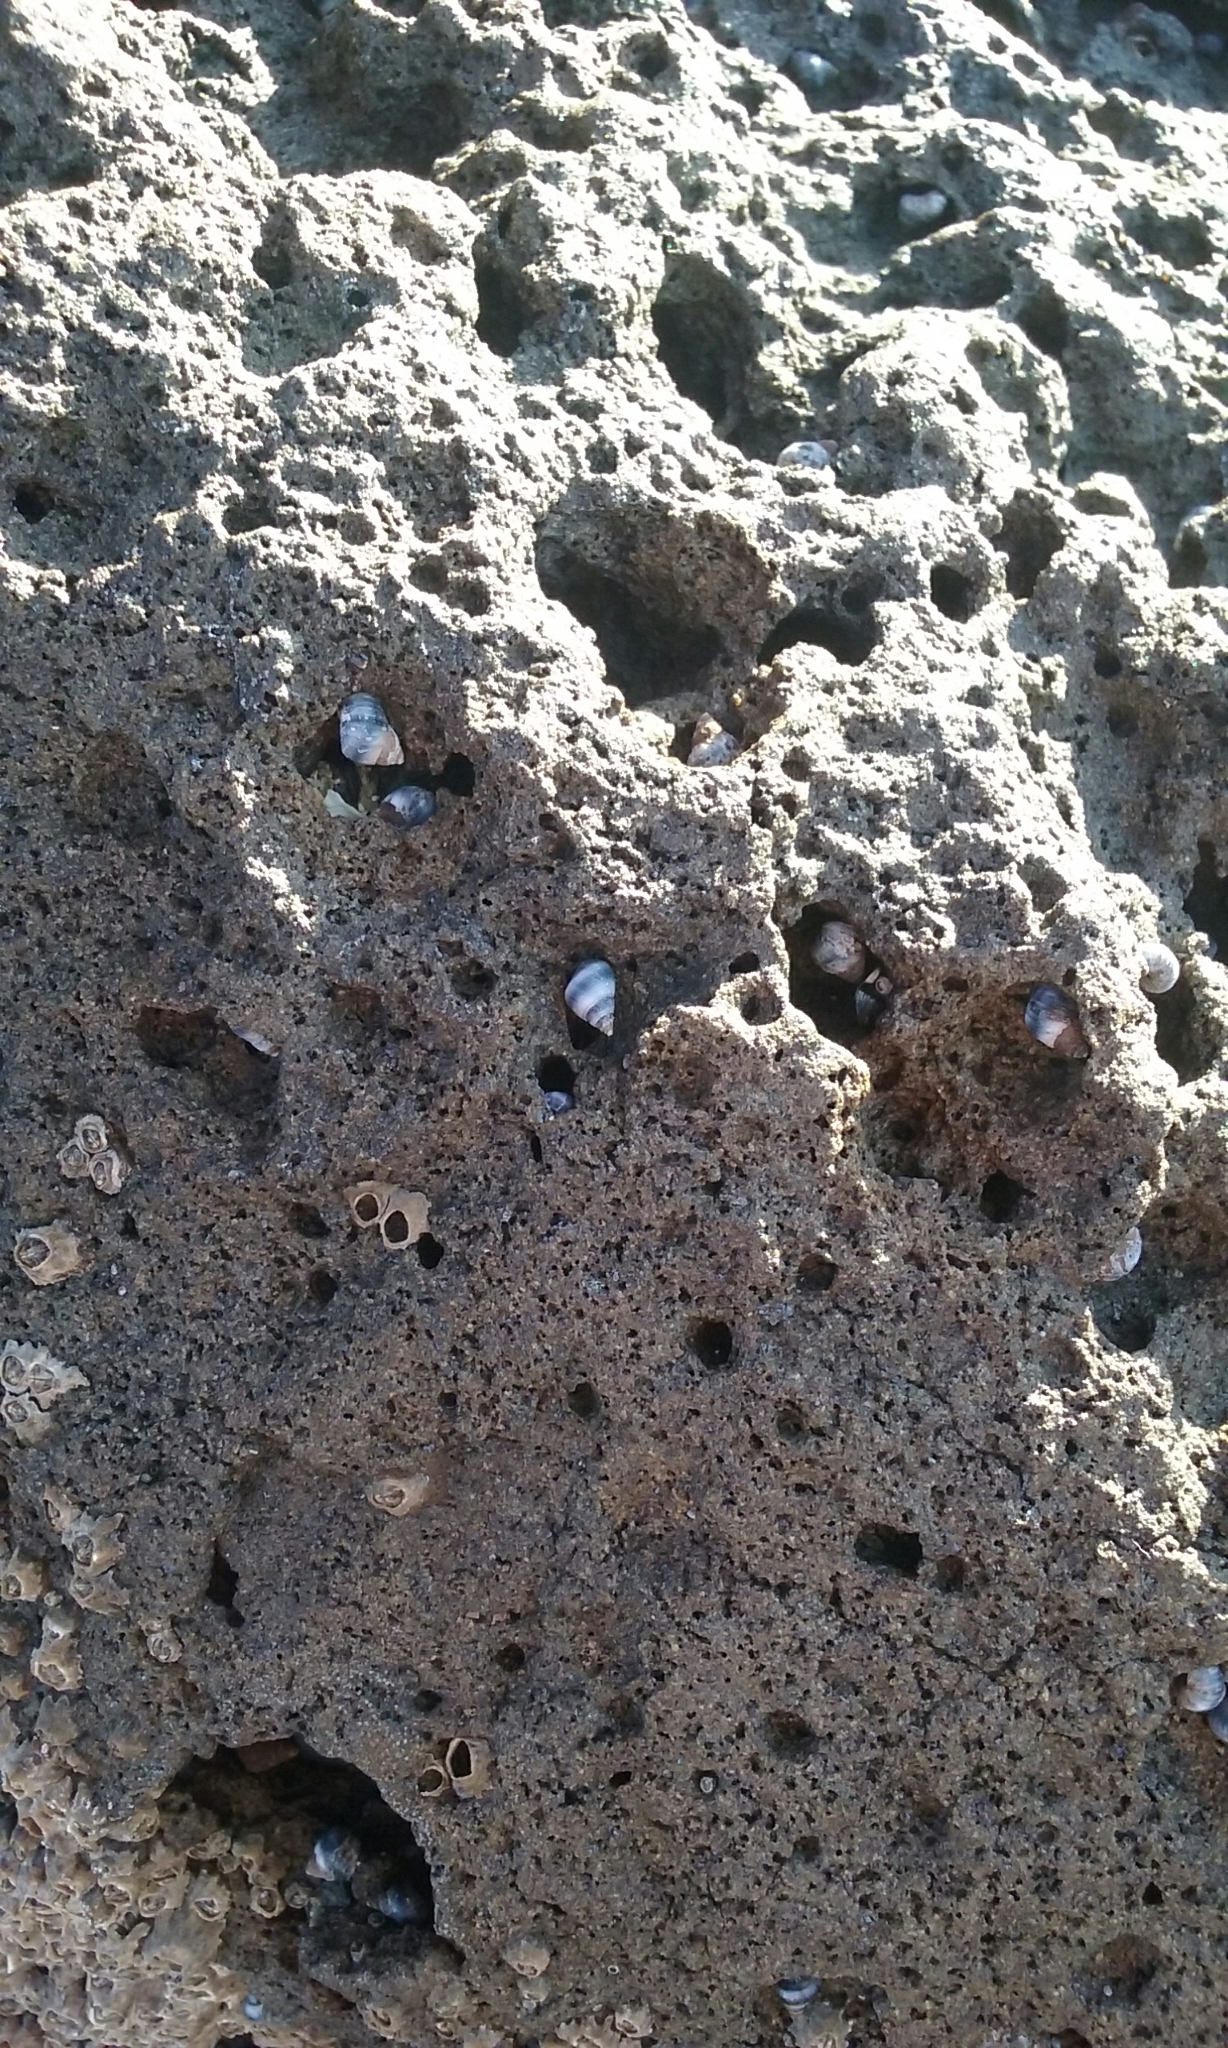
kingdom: Animalia
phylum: Mollusca
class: Gastropoda
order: Littorinimorpha
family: Littorinidae
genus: Austrolittorina
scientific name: Austrolittorina antipodum
